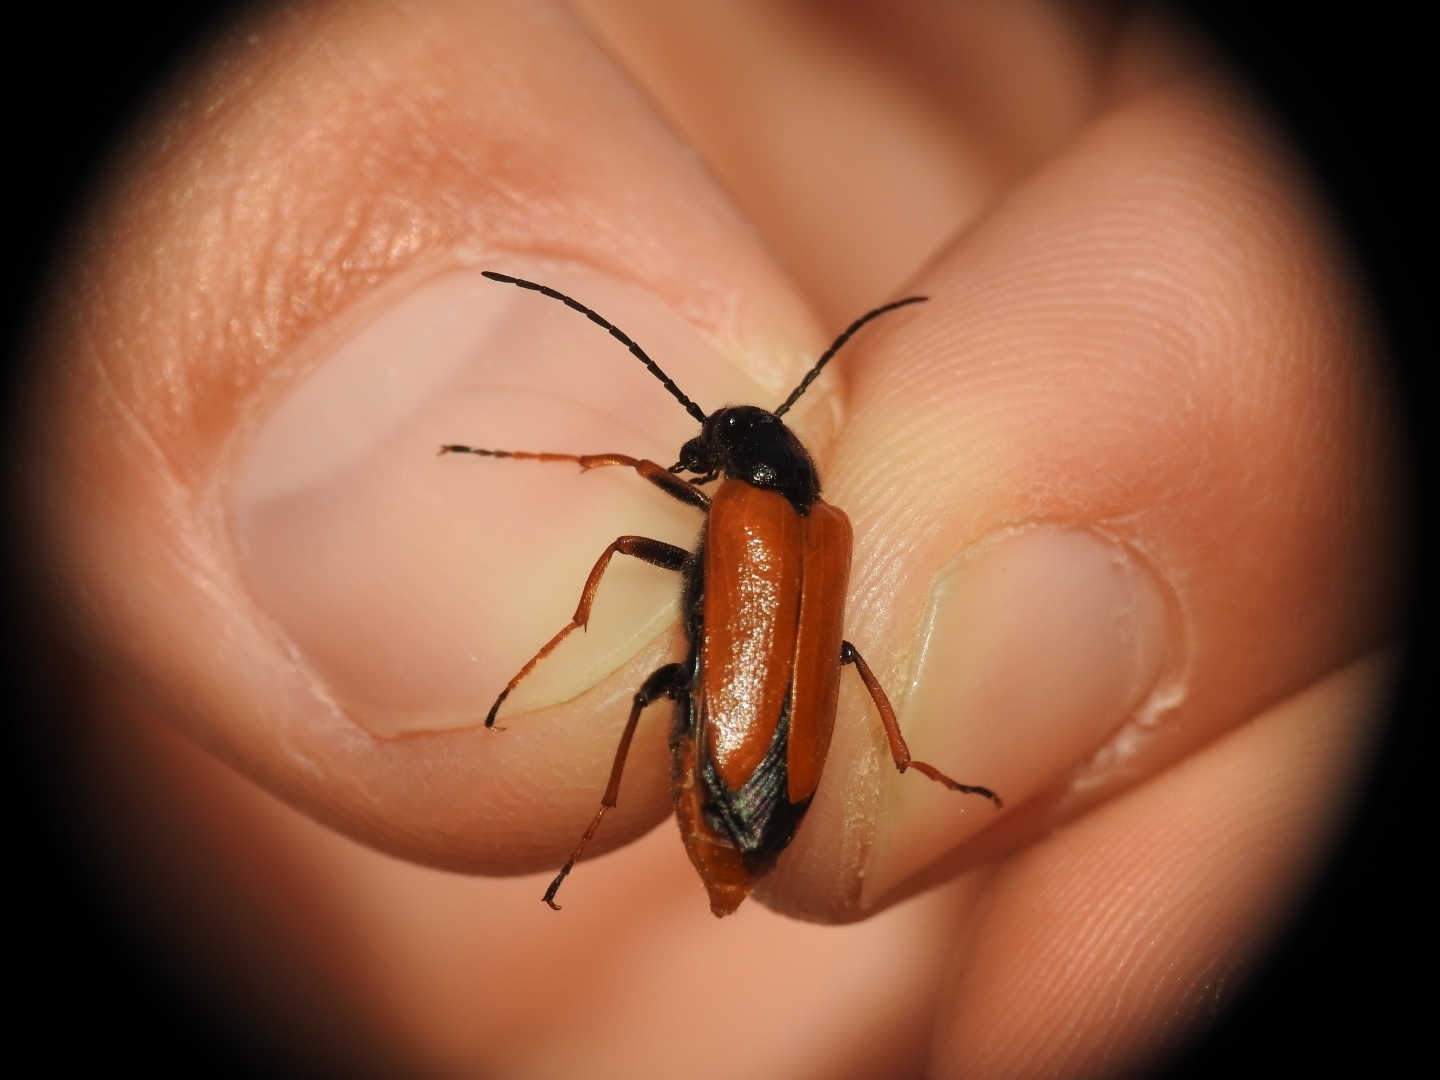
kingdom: Animalia
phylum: Arthropoda
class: Insecta
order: Coleoptera
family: Meloidae
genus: Apalus
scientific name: Apalus necydaleus
